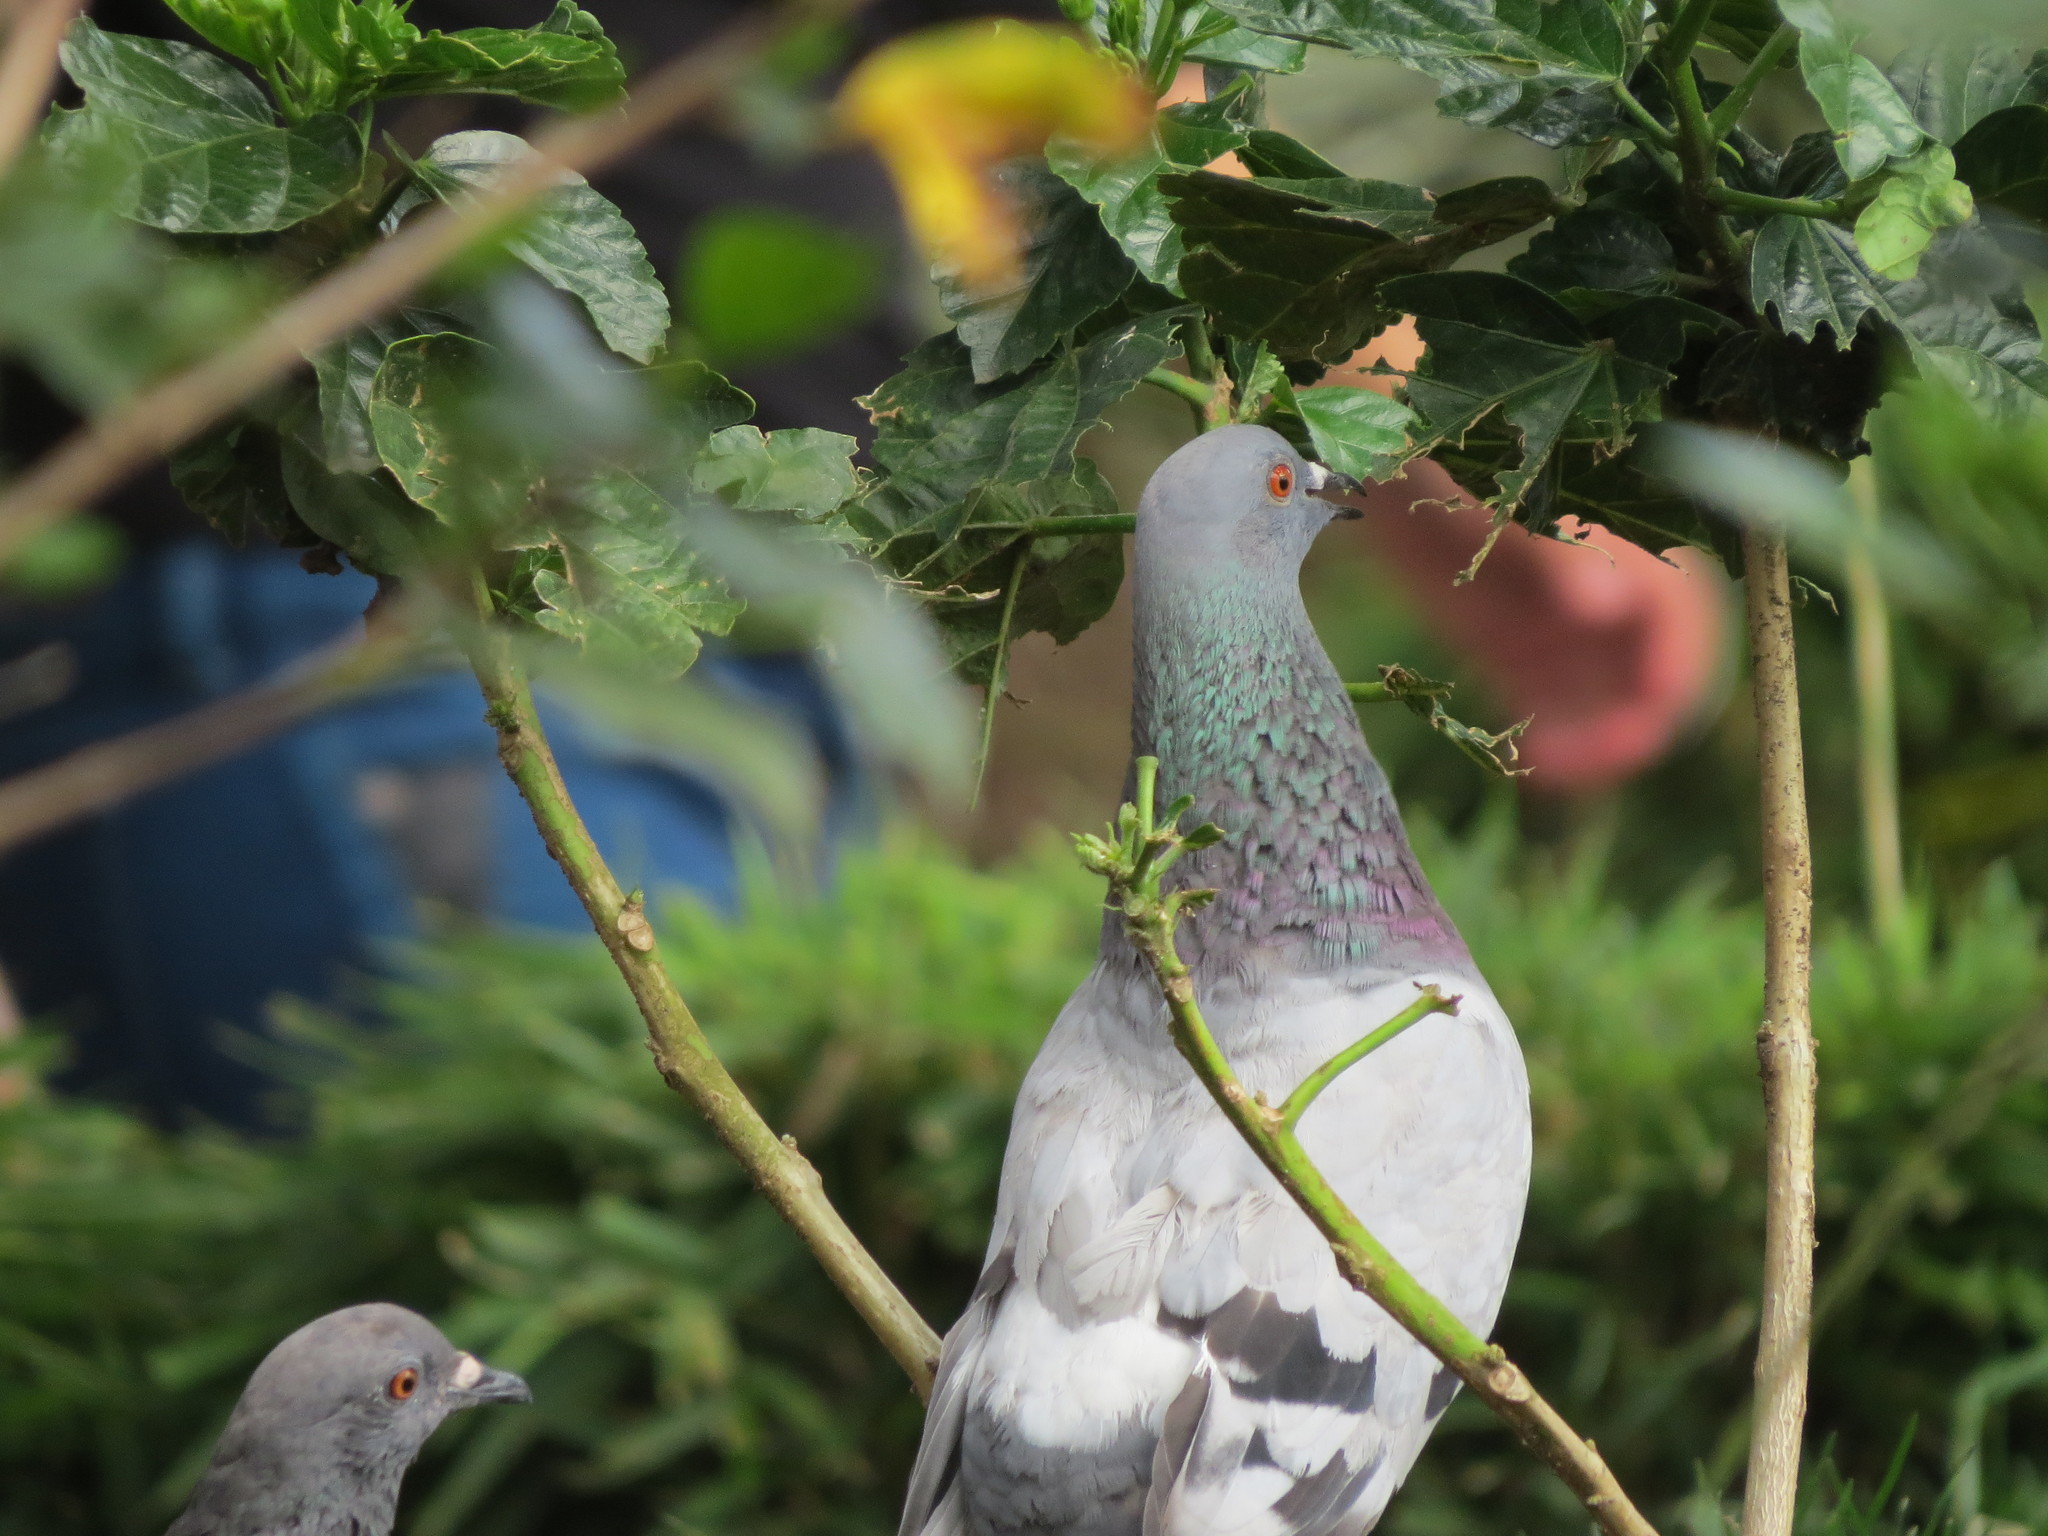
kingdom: Animalia
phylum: Chordata
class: Aves
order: Columbiformes
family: Columbidae
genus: Columba
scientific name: Columba livia
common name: Rock pigeon
